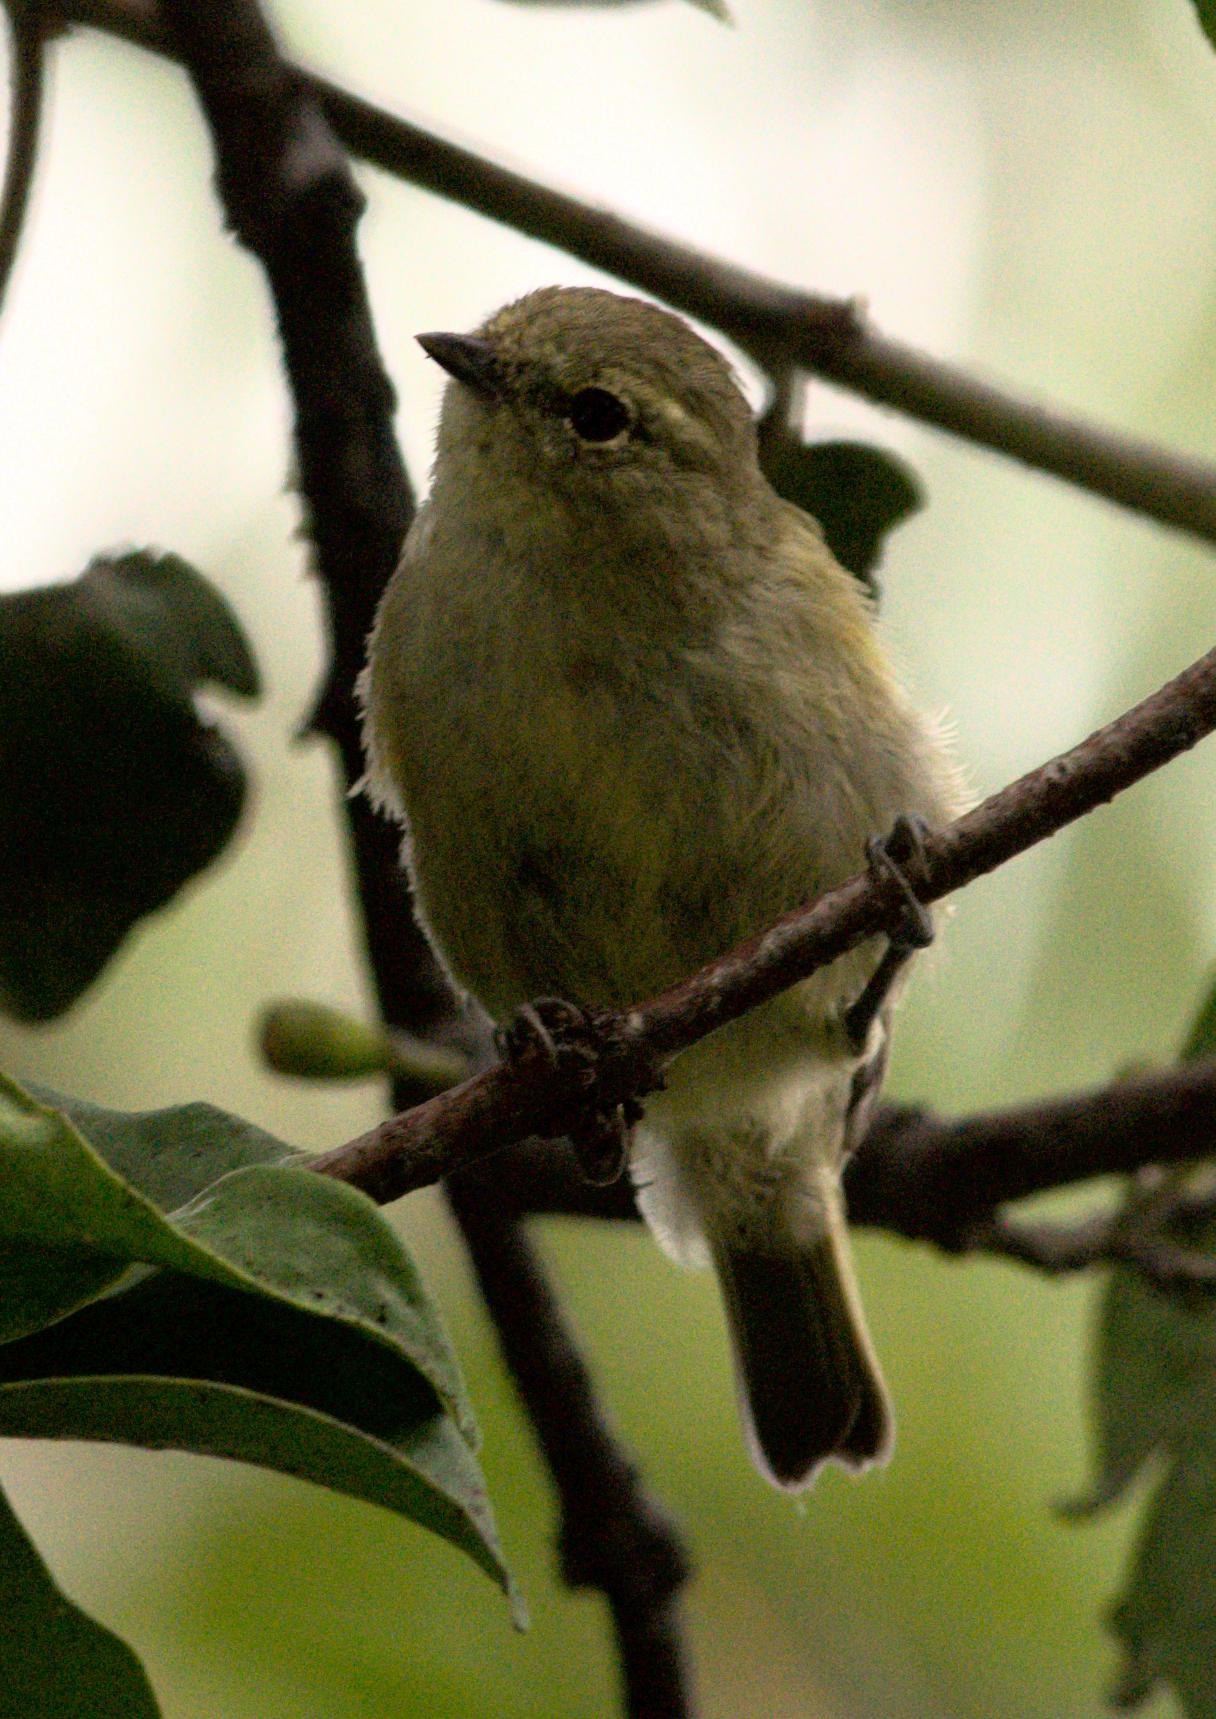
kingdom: Animalia
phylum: Chordata
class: Aves
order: Passeriformes
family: Paridae
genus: Sylviparus
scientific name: Sylviparus modestus
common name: Yellow-browed tit
